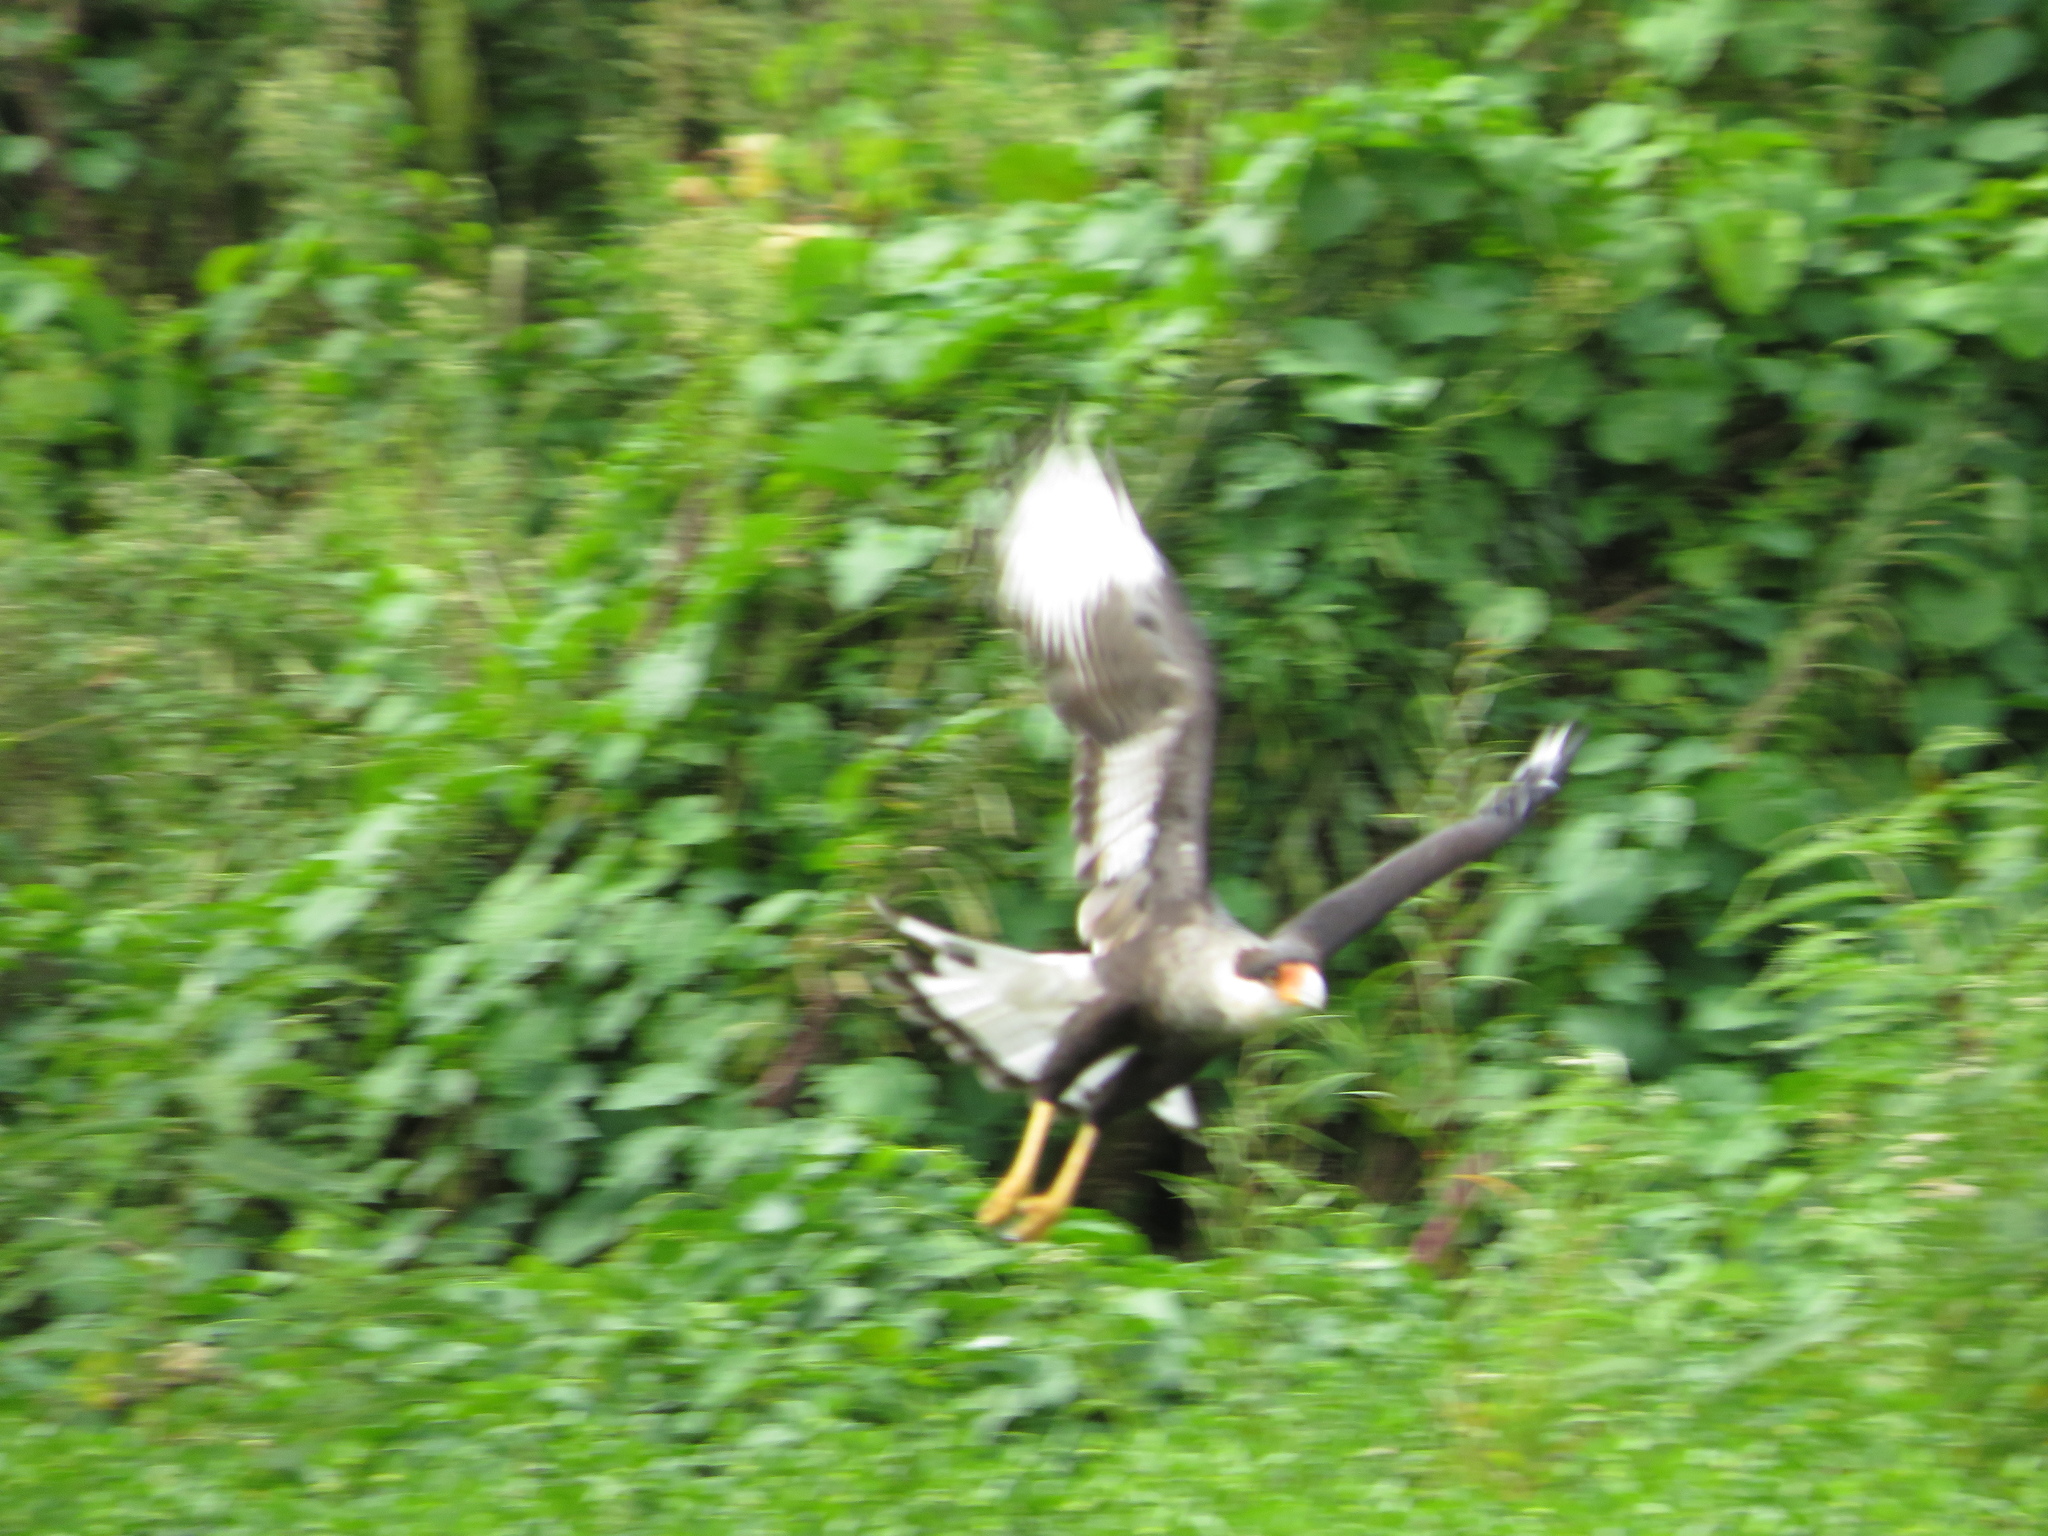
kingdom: Animalia
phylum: Chordata
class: Aves
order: Falconiformes
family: Falconidae
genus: Caracara
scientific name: Caracara plancus
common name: Southern caracara
